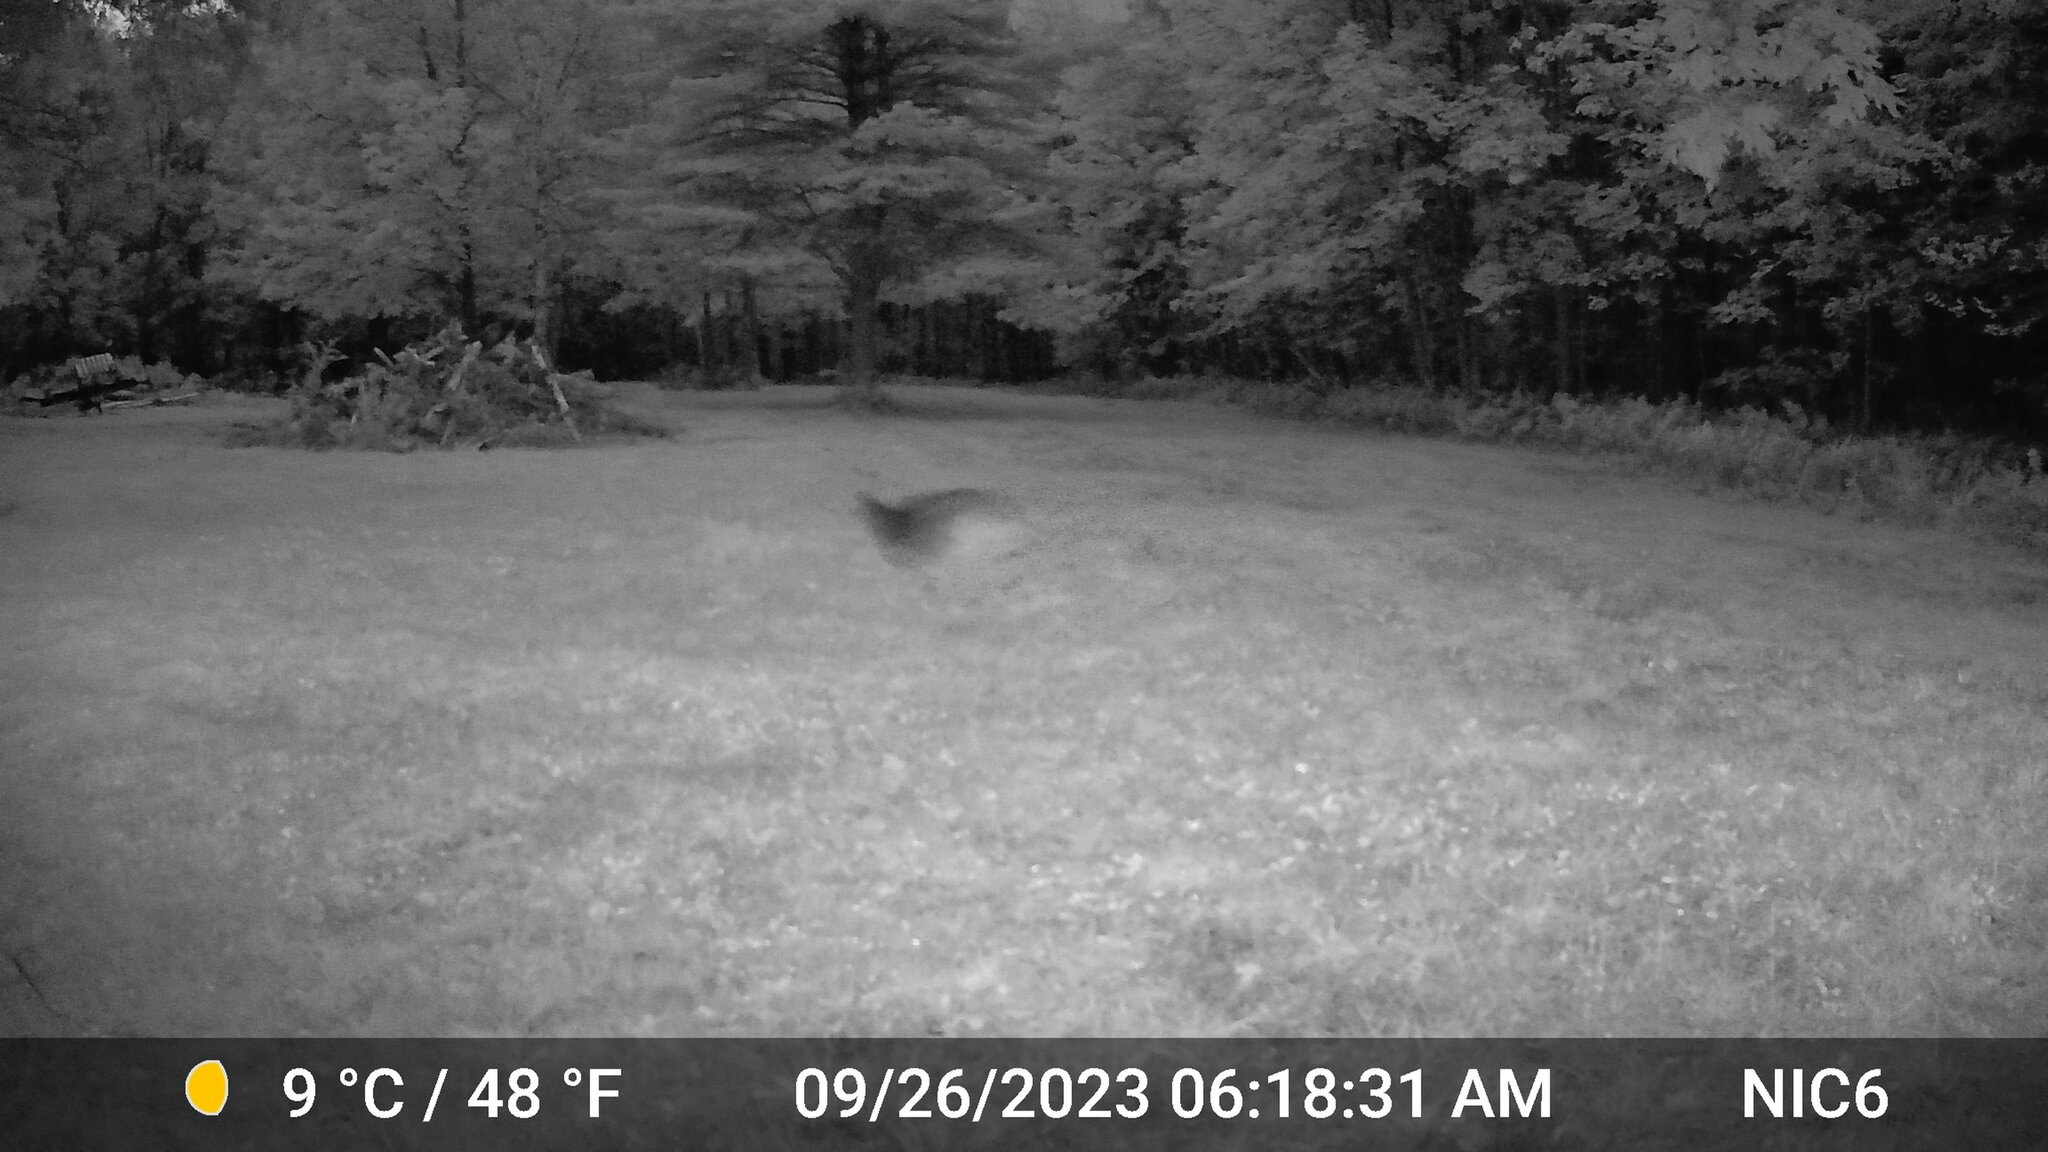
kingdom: Animalia
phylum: Chordata
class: Mammalia
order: Artiodactyla
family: Cervidae
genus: Odocoileus
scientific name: Odocoileus virginianus
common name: White-tailed deer
